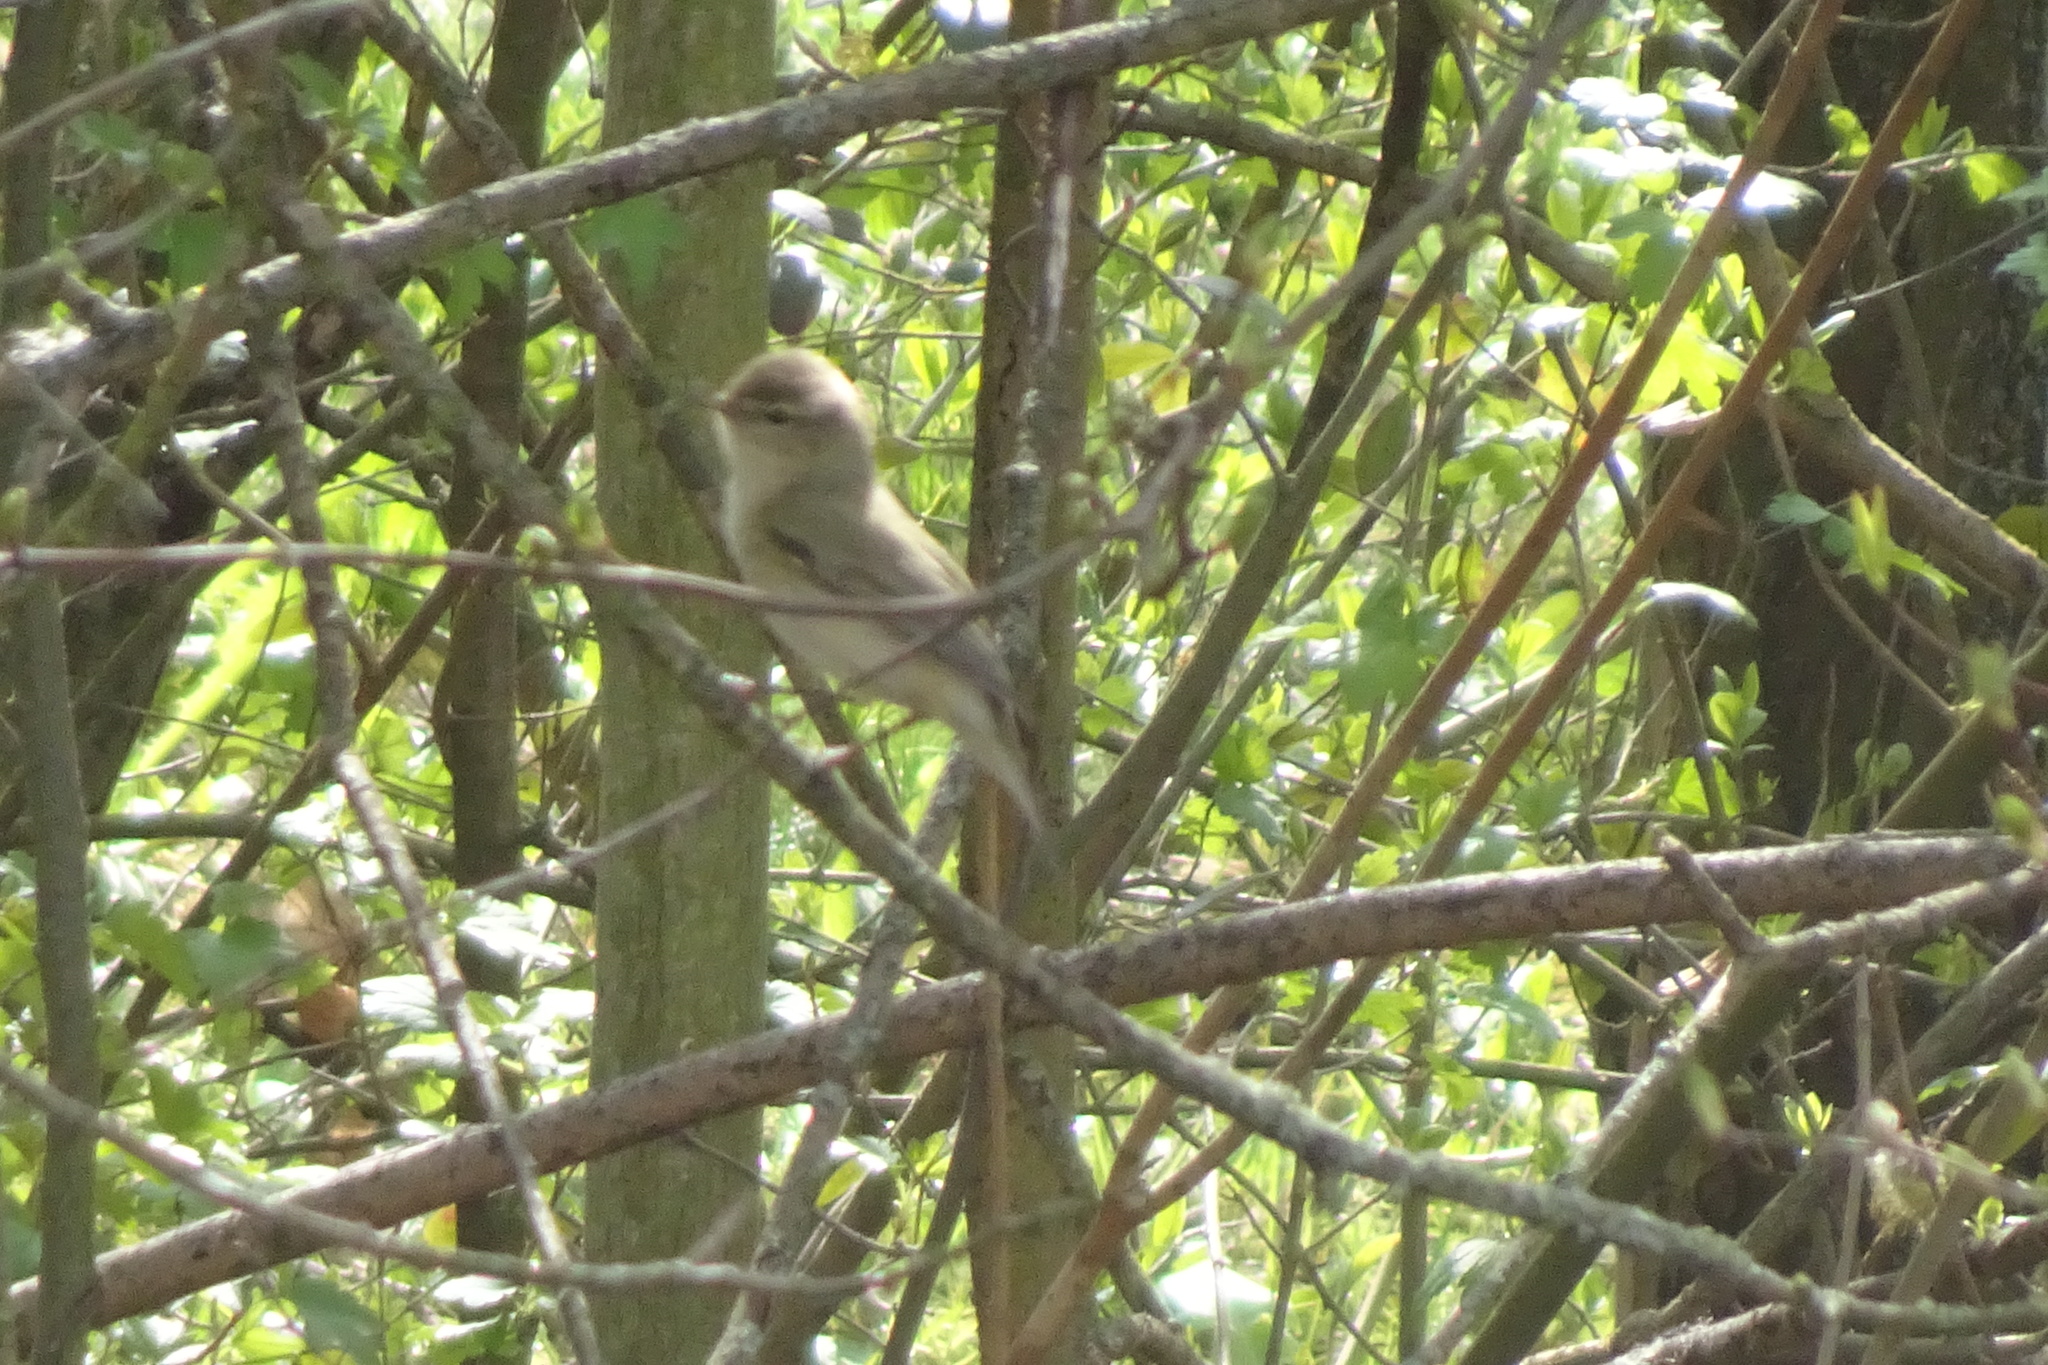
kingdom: Animalia
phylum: Chordata
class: Aves
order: Passeriformes
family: Phylloscopidae
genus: Phylloscopus
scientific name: Phylloscopus trochilus
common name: Willow warbler
